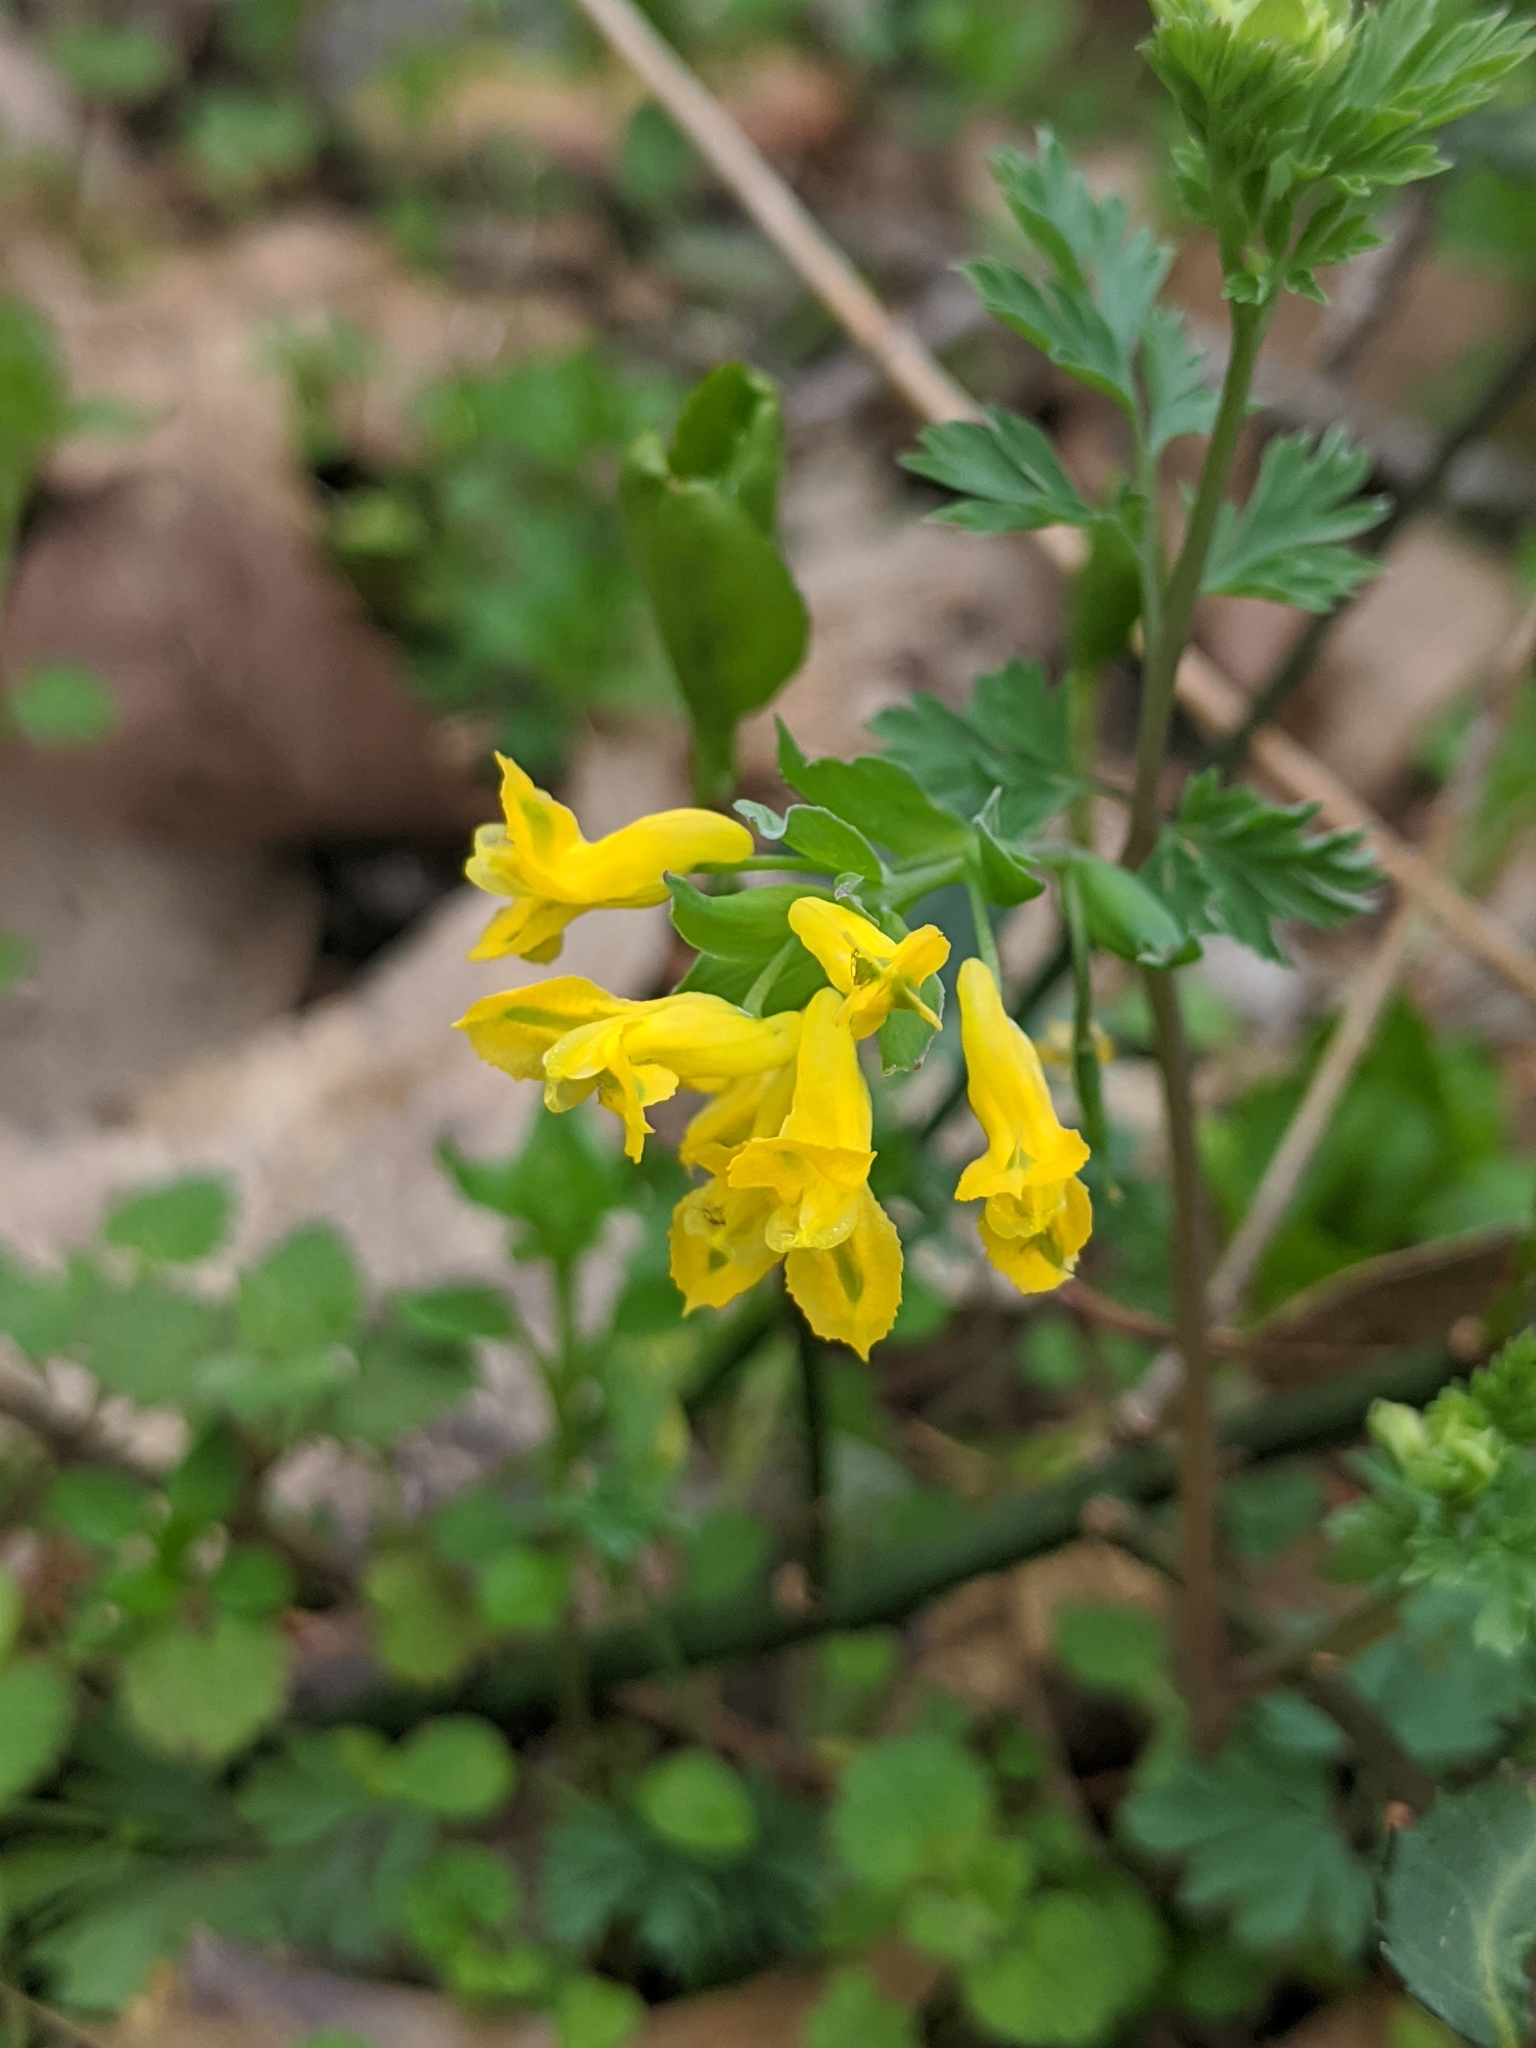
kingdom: Plantae
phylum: Tracheophyta
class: Magnoliopsida
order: Ranunculales
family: Papaveraceae
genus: Corydalis
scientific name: Corydalis flavula
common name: Yellow corydalis
